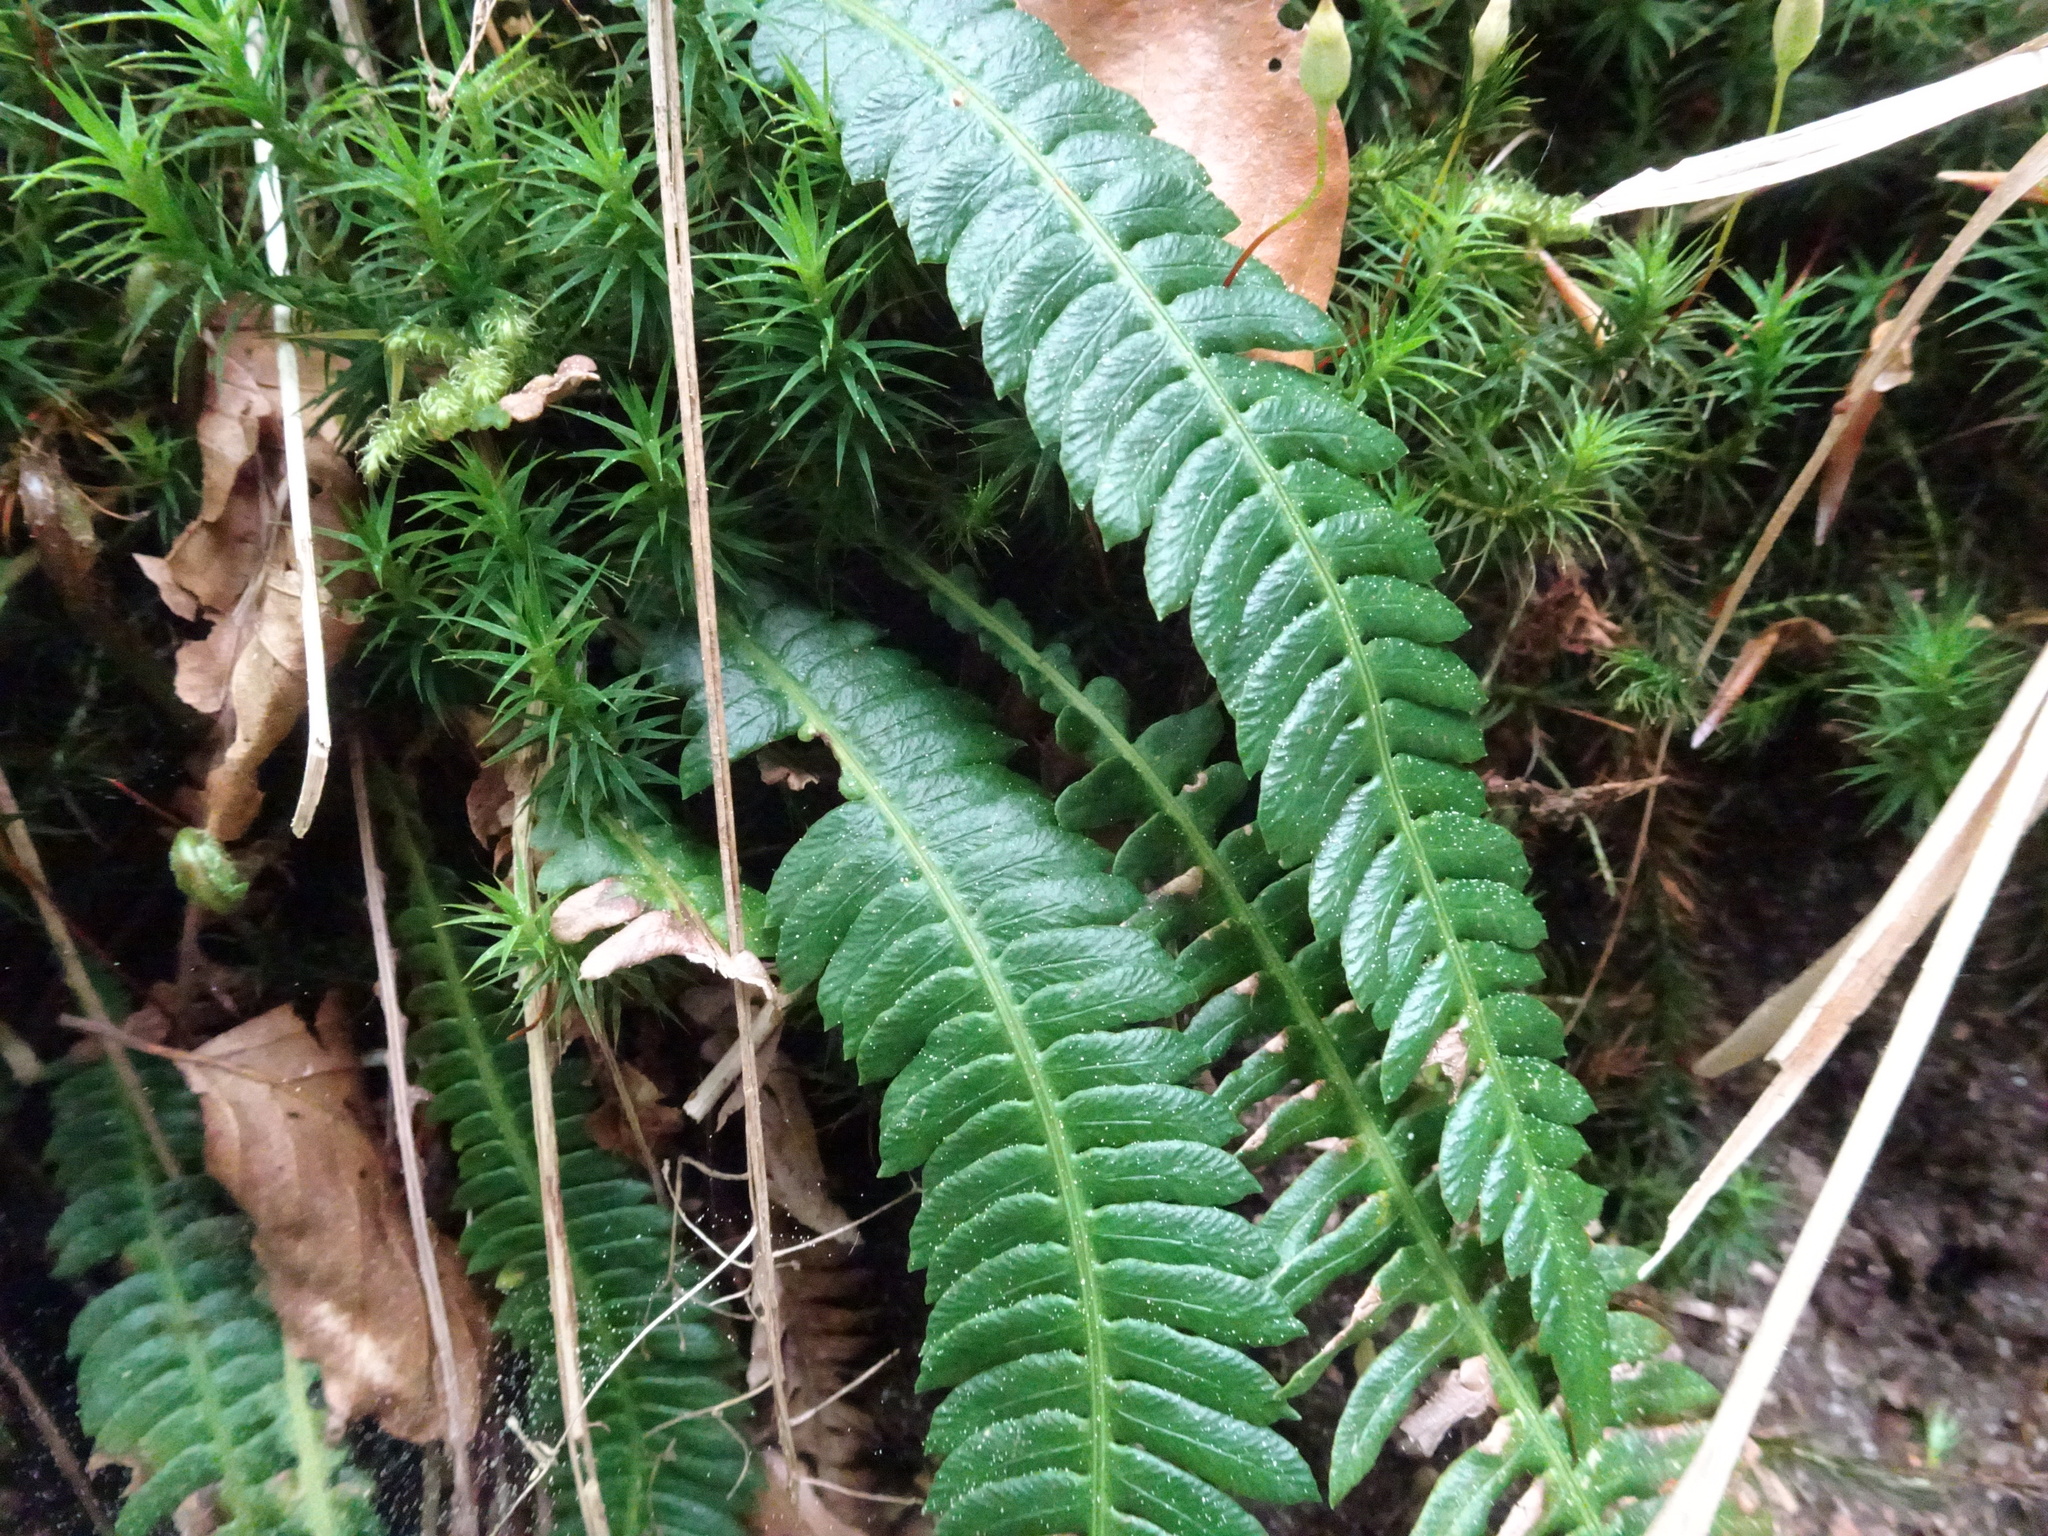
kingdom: Plantae
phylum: Tracheophyta
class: Polypodiopsida
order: Polypodiales
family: Blechnaceae
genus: Struthiopteris
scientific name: Struthiopteris spicant
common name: Deer fern
